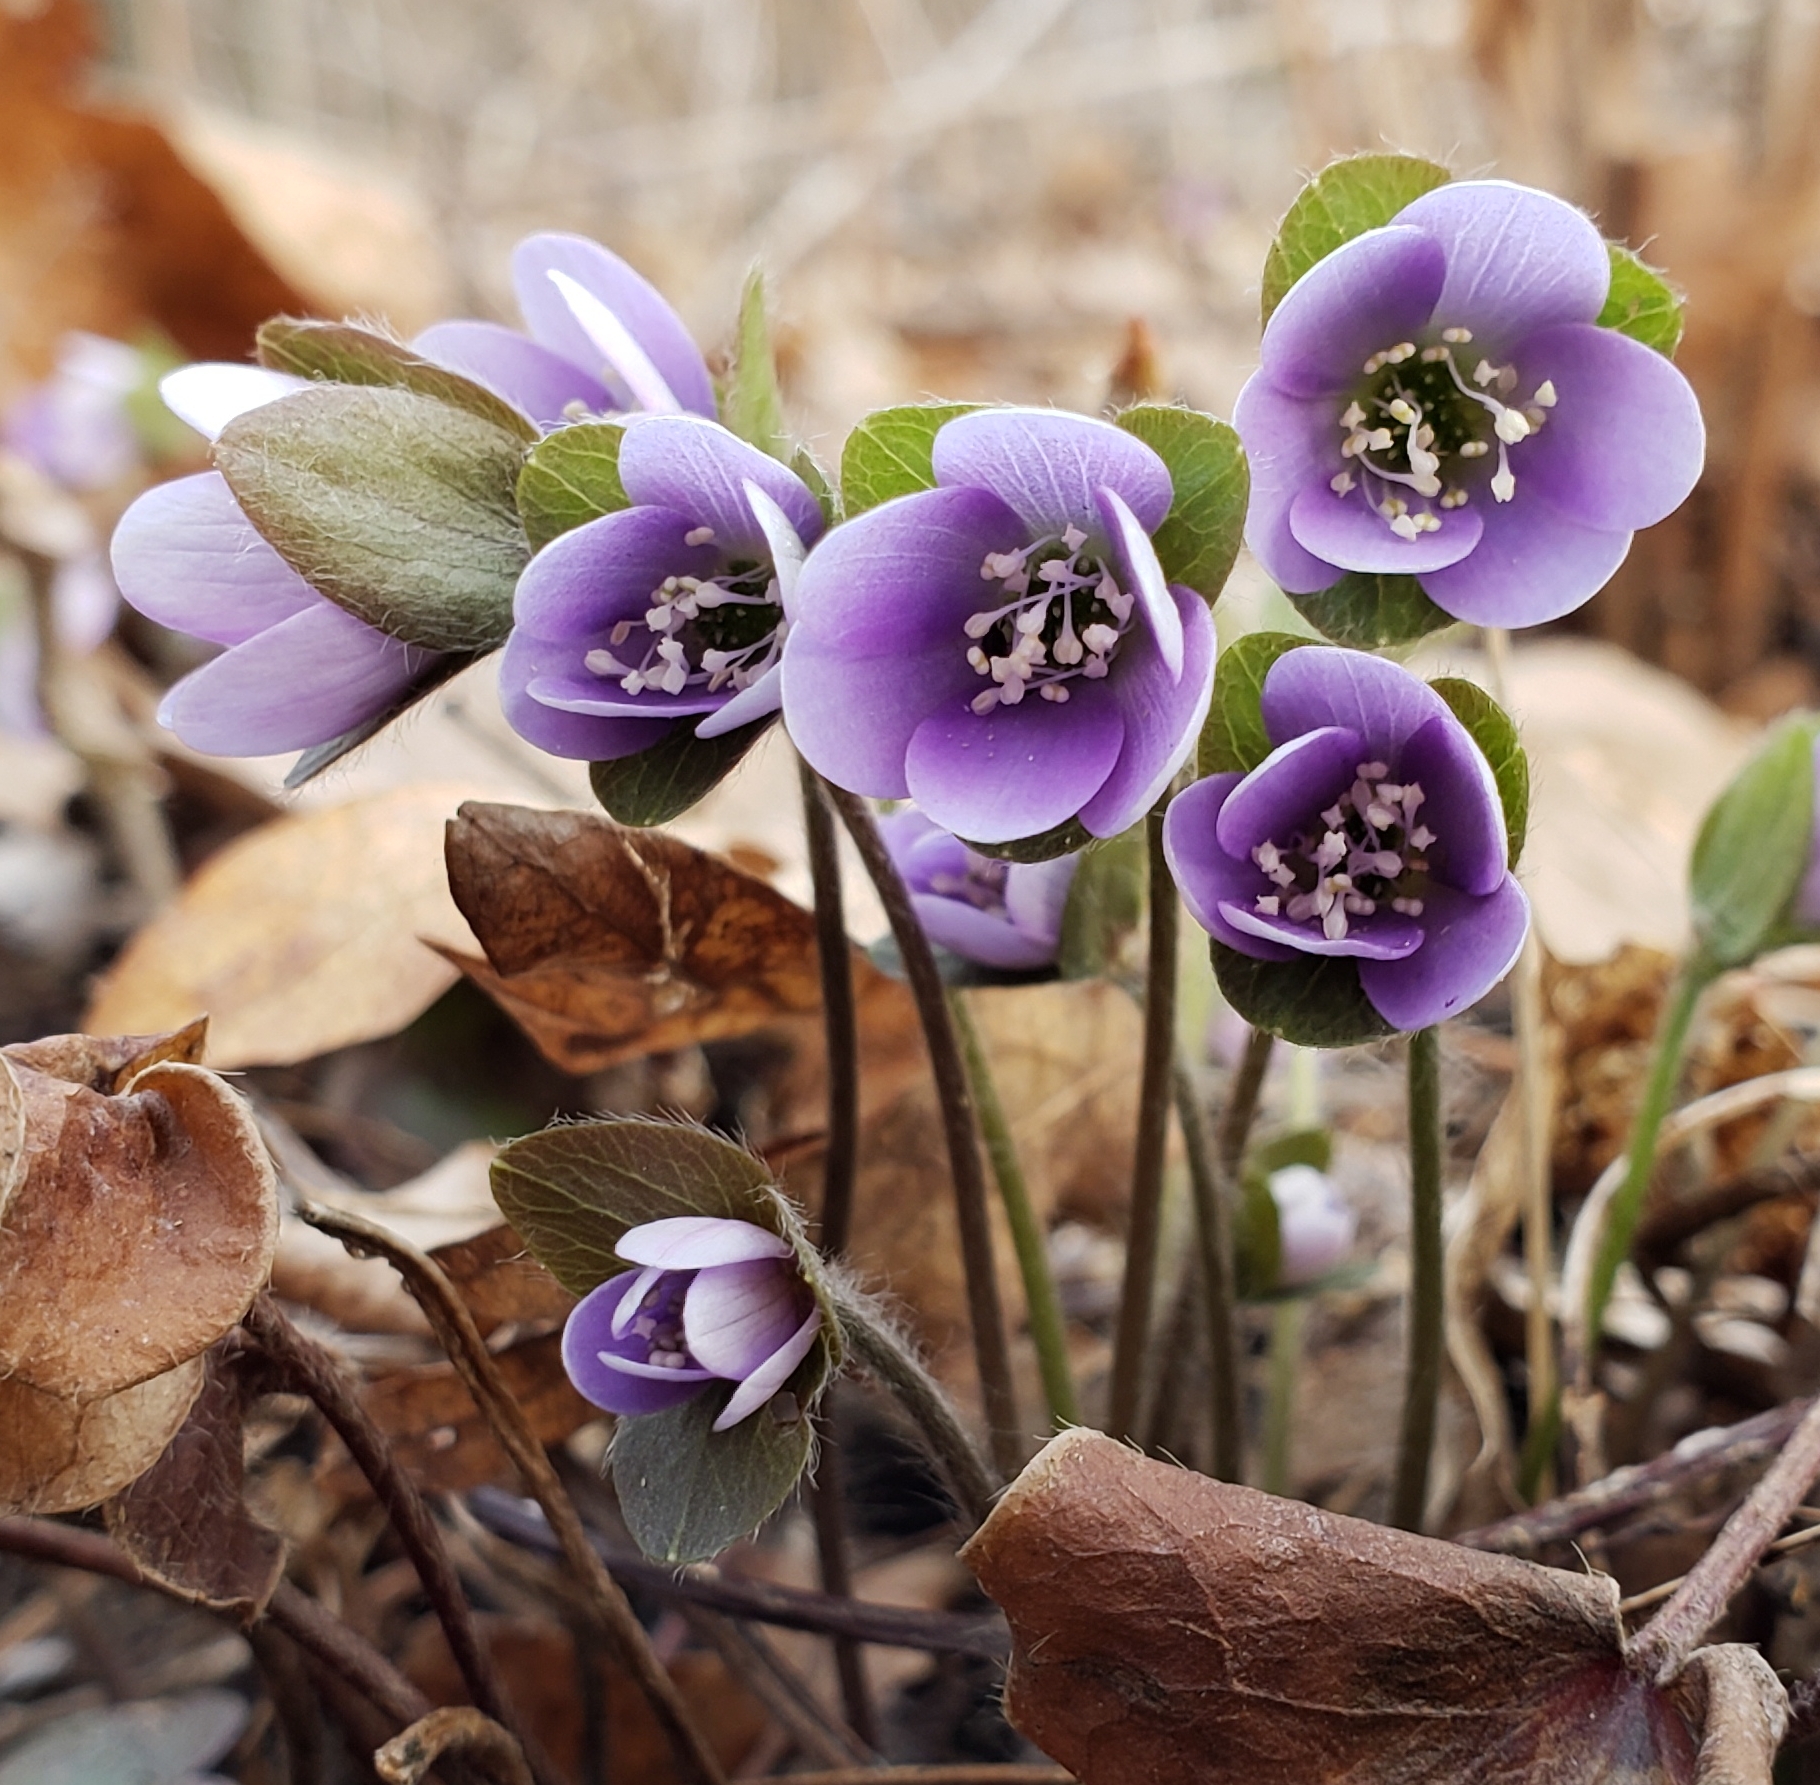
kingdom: Plantae
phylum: Tracheophyta
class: Magnoliopsida
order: Ranunculales
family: Ranunculaceae
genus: Hepatica
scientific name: Hepatica americana
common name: American hepatica
